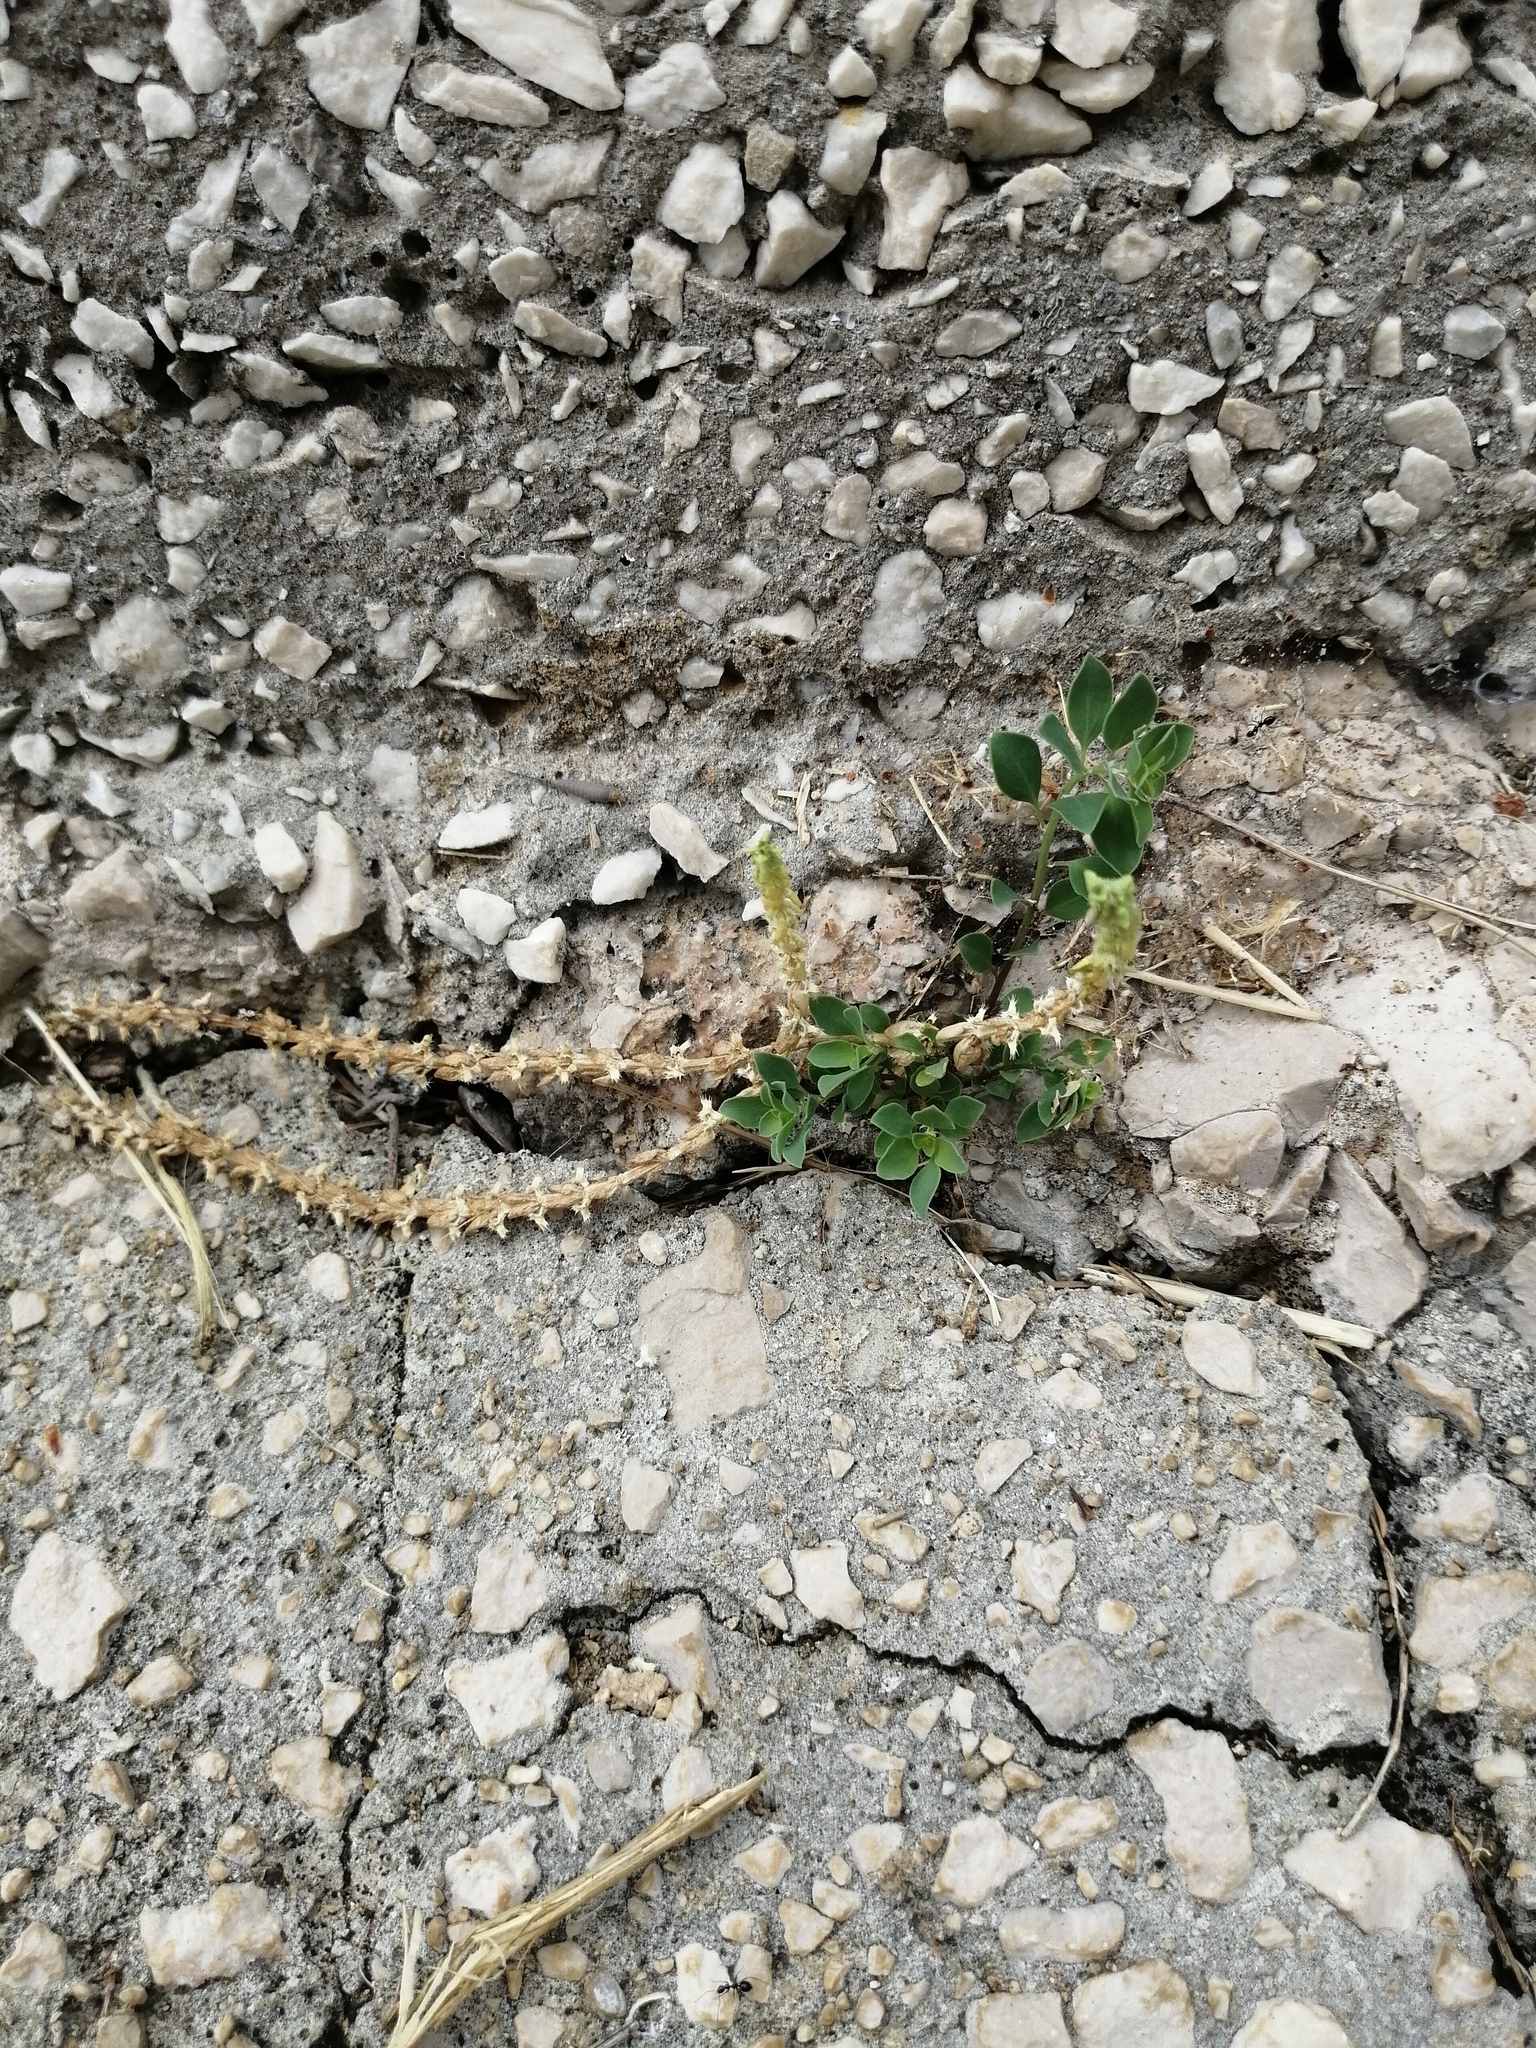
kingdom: Plantae
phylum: Tracheophyta
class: Magnoliopsida
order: Gentianales
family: Rubiaceae
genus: Valantia
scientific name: Valantia muralis
